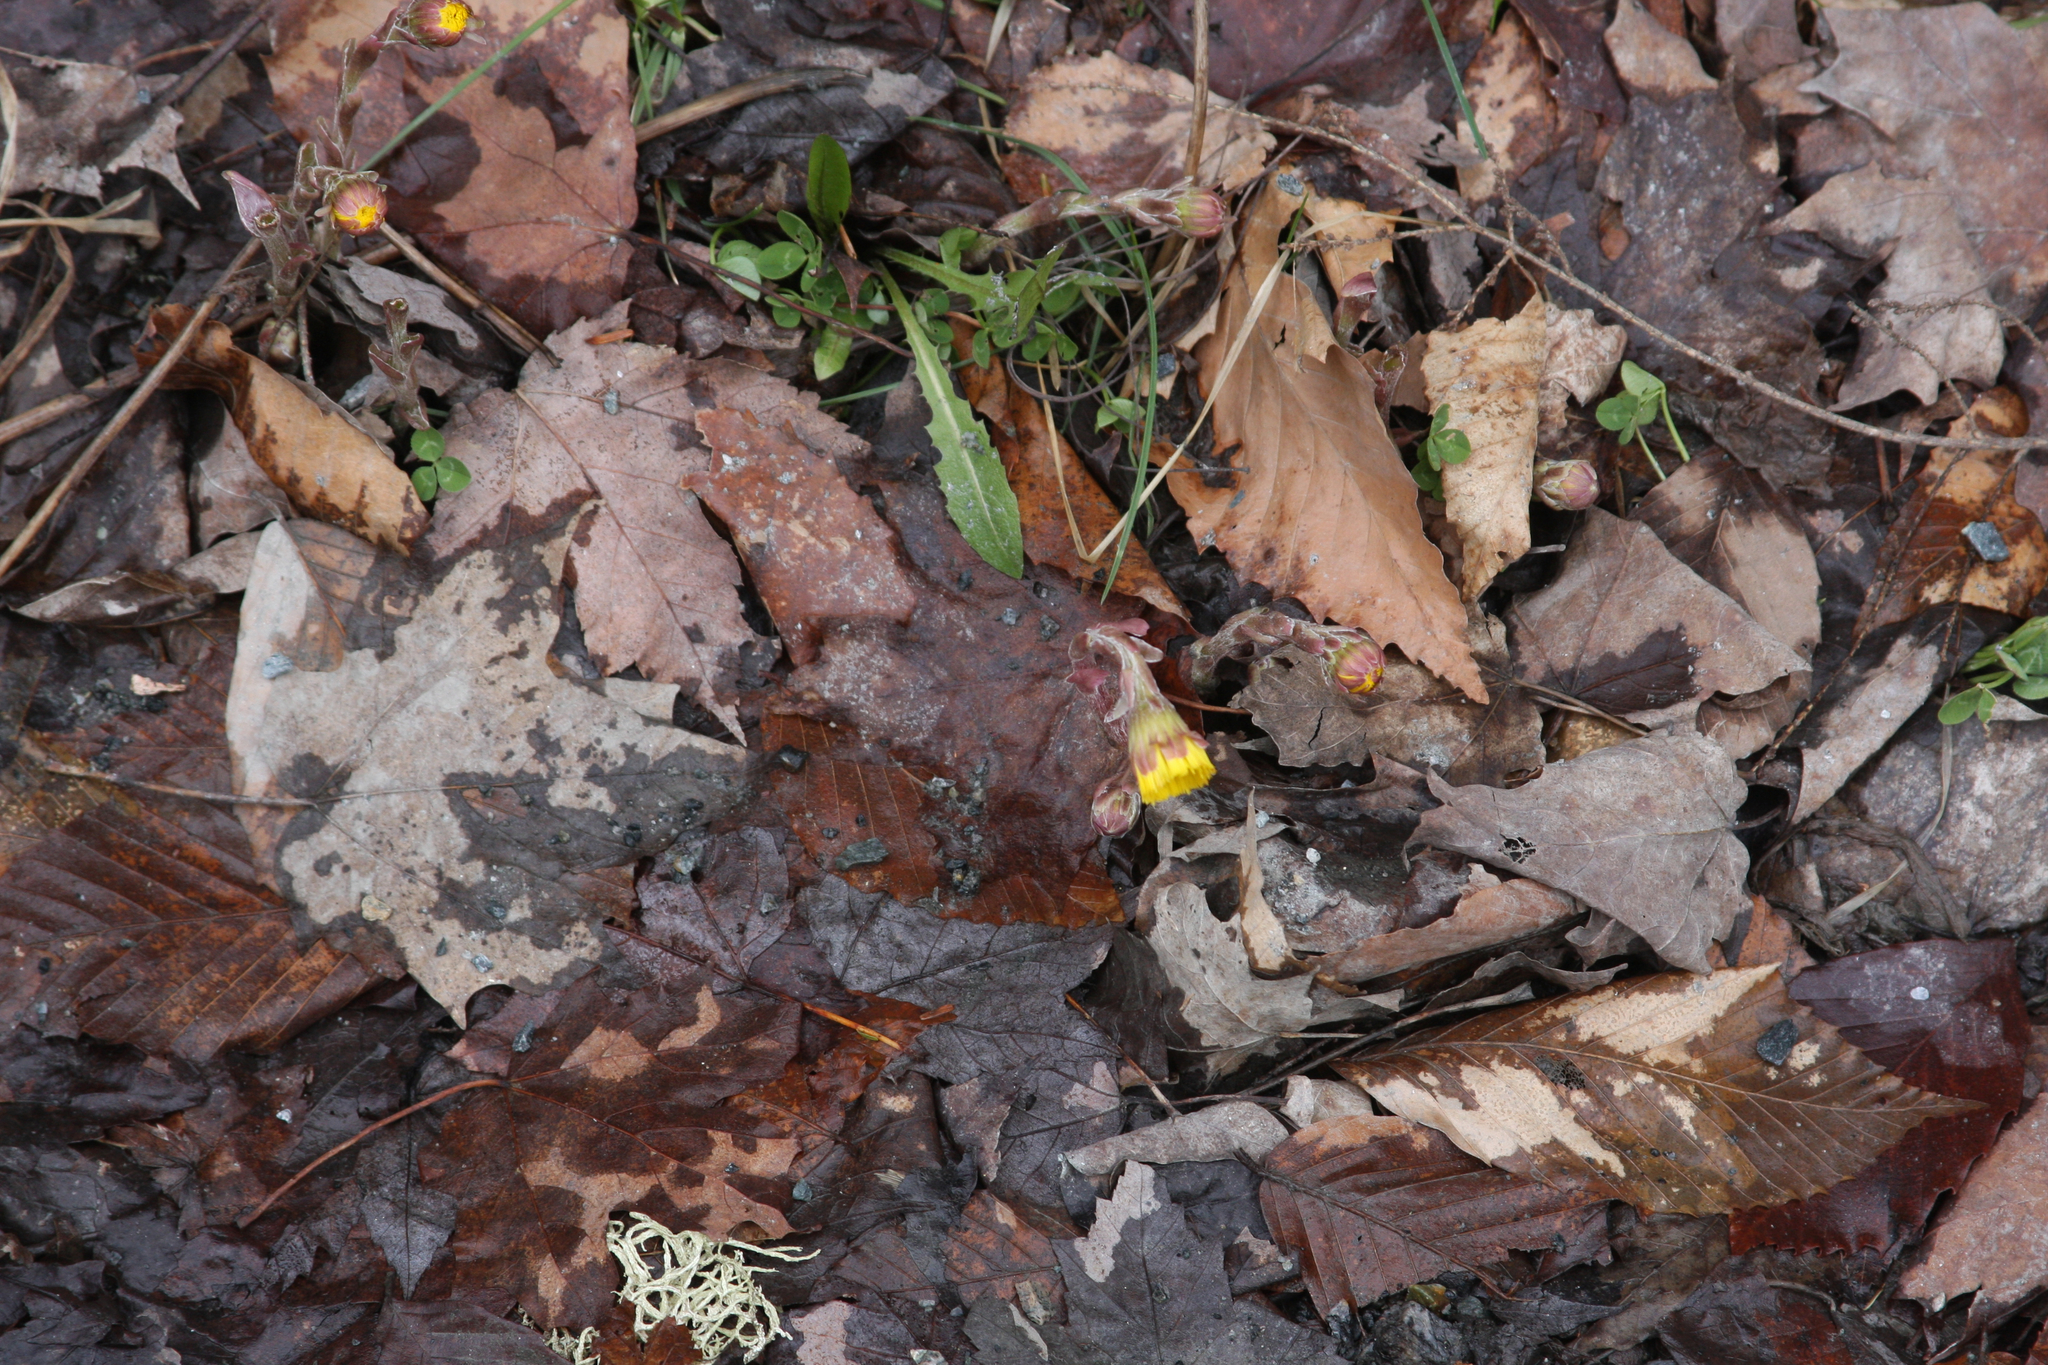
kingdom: Plantae
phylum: Tracheophyta
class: Magnoliopsida
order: Asterales
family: Asteraceae
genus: Tussilago
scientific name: Tussilago farfara
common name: Coltsfoot
